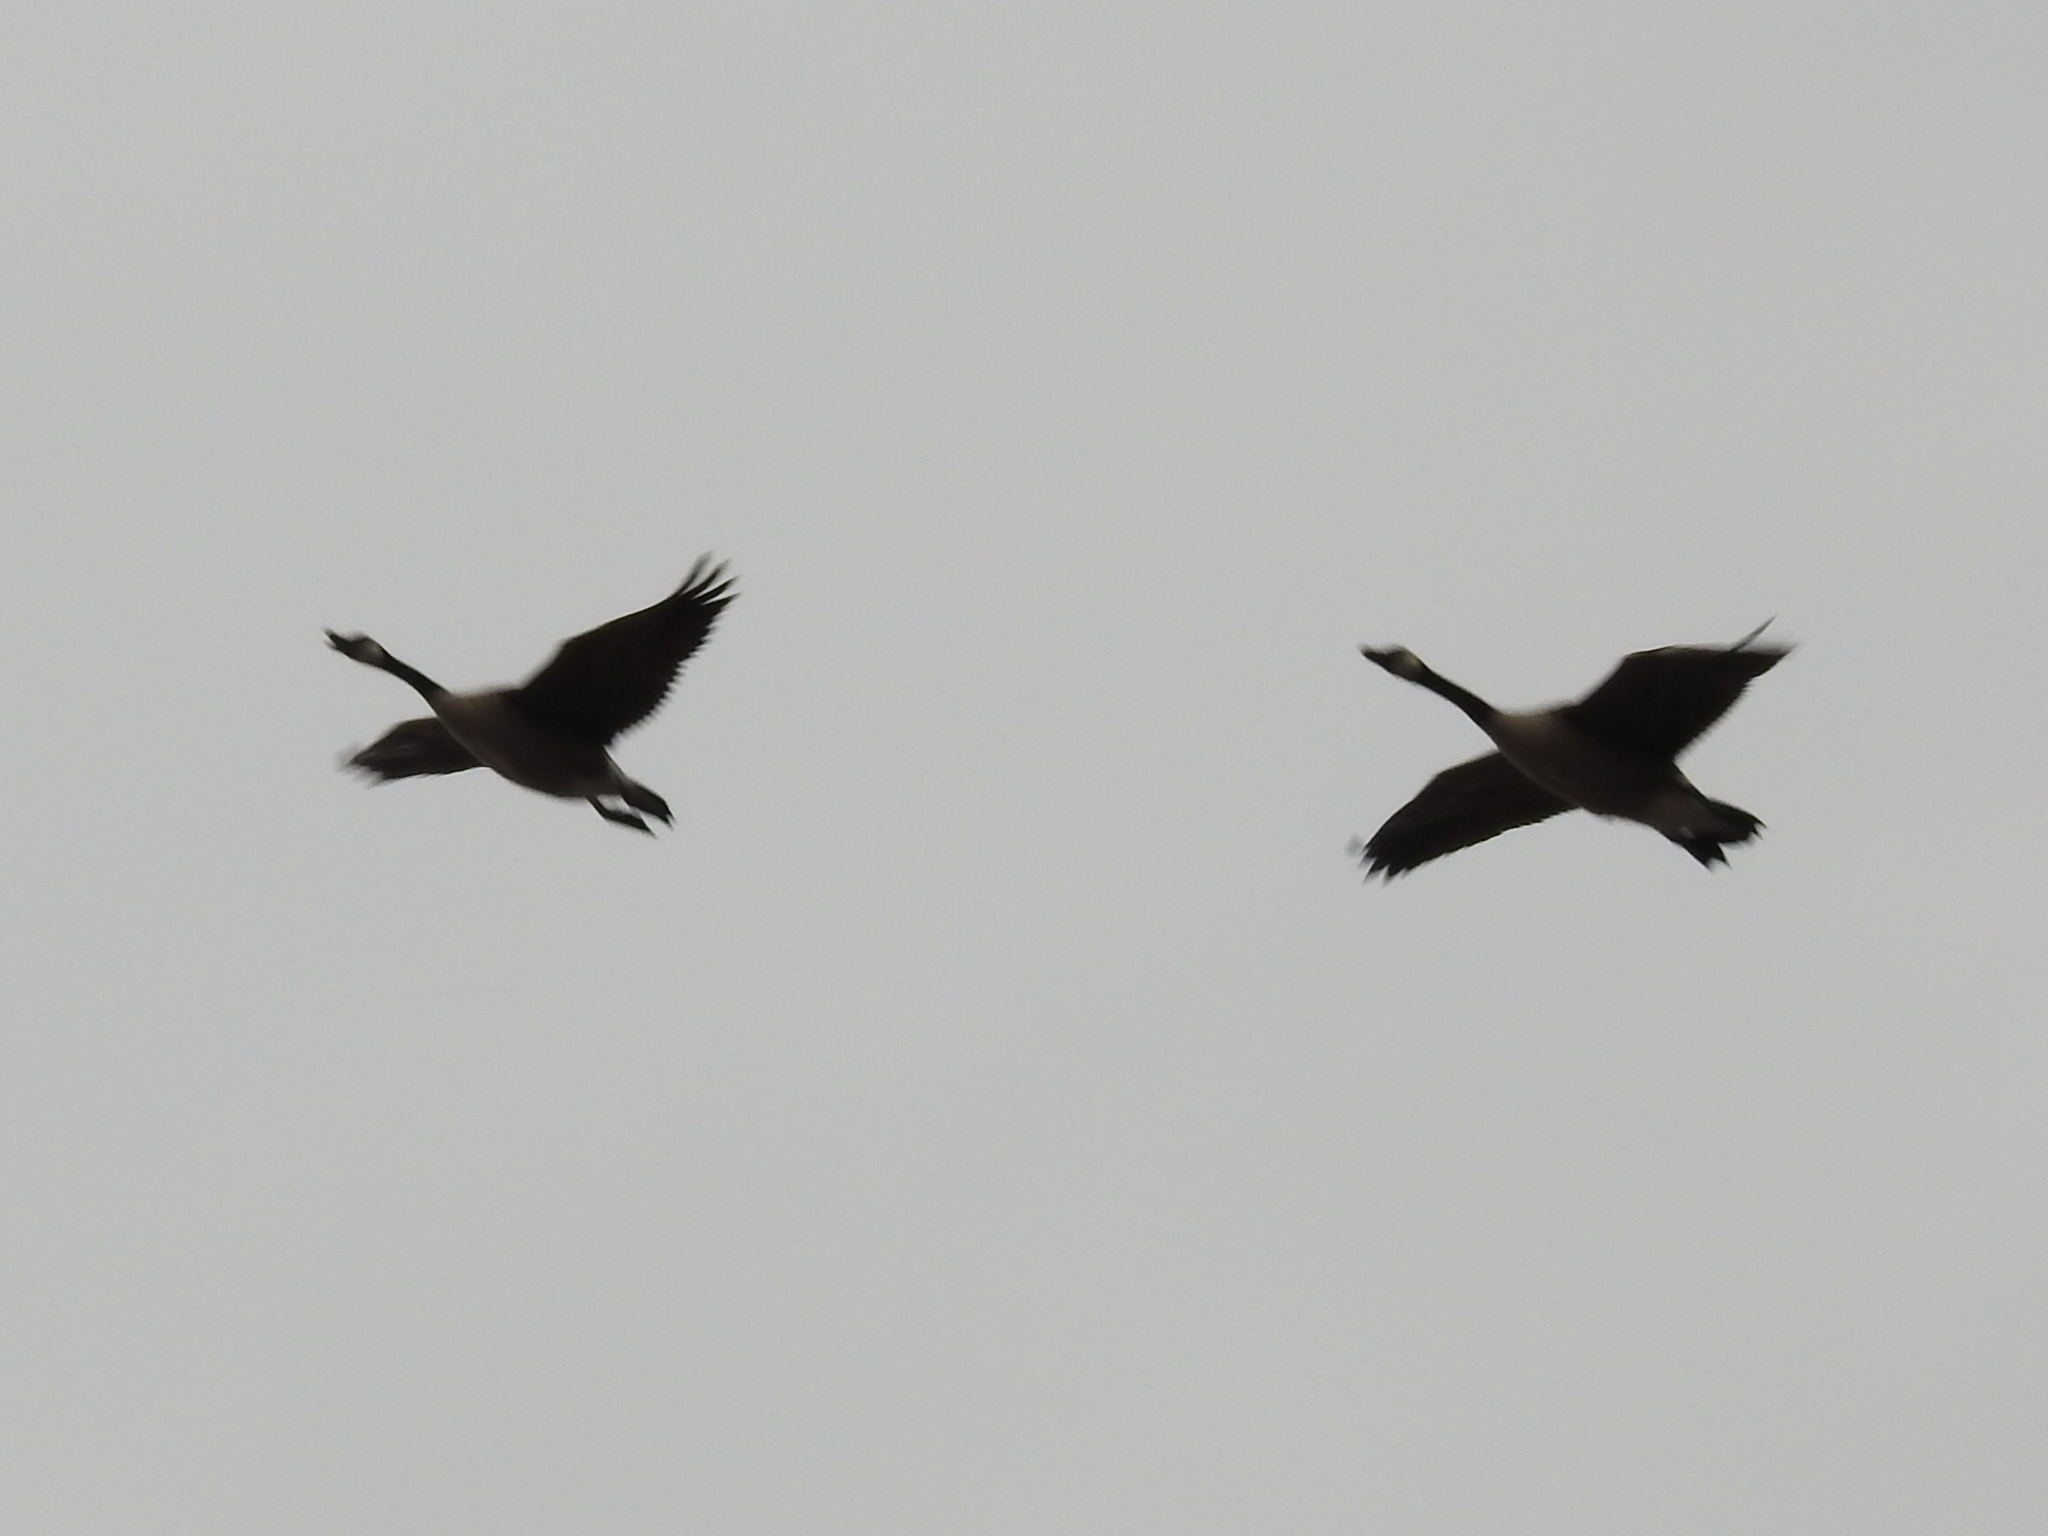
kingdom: Animalia
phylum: Chordata
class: Aves
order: Anseriformes
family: Anatidae
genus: Branta
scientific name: Branta canadensis
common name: Canada goose
